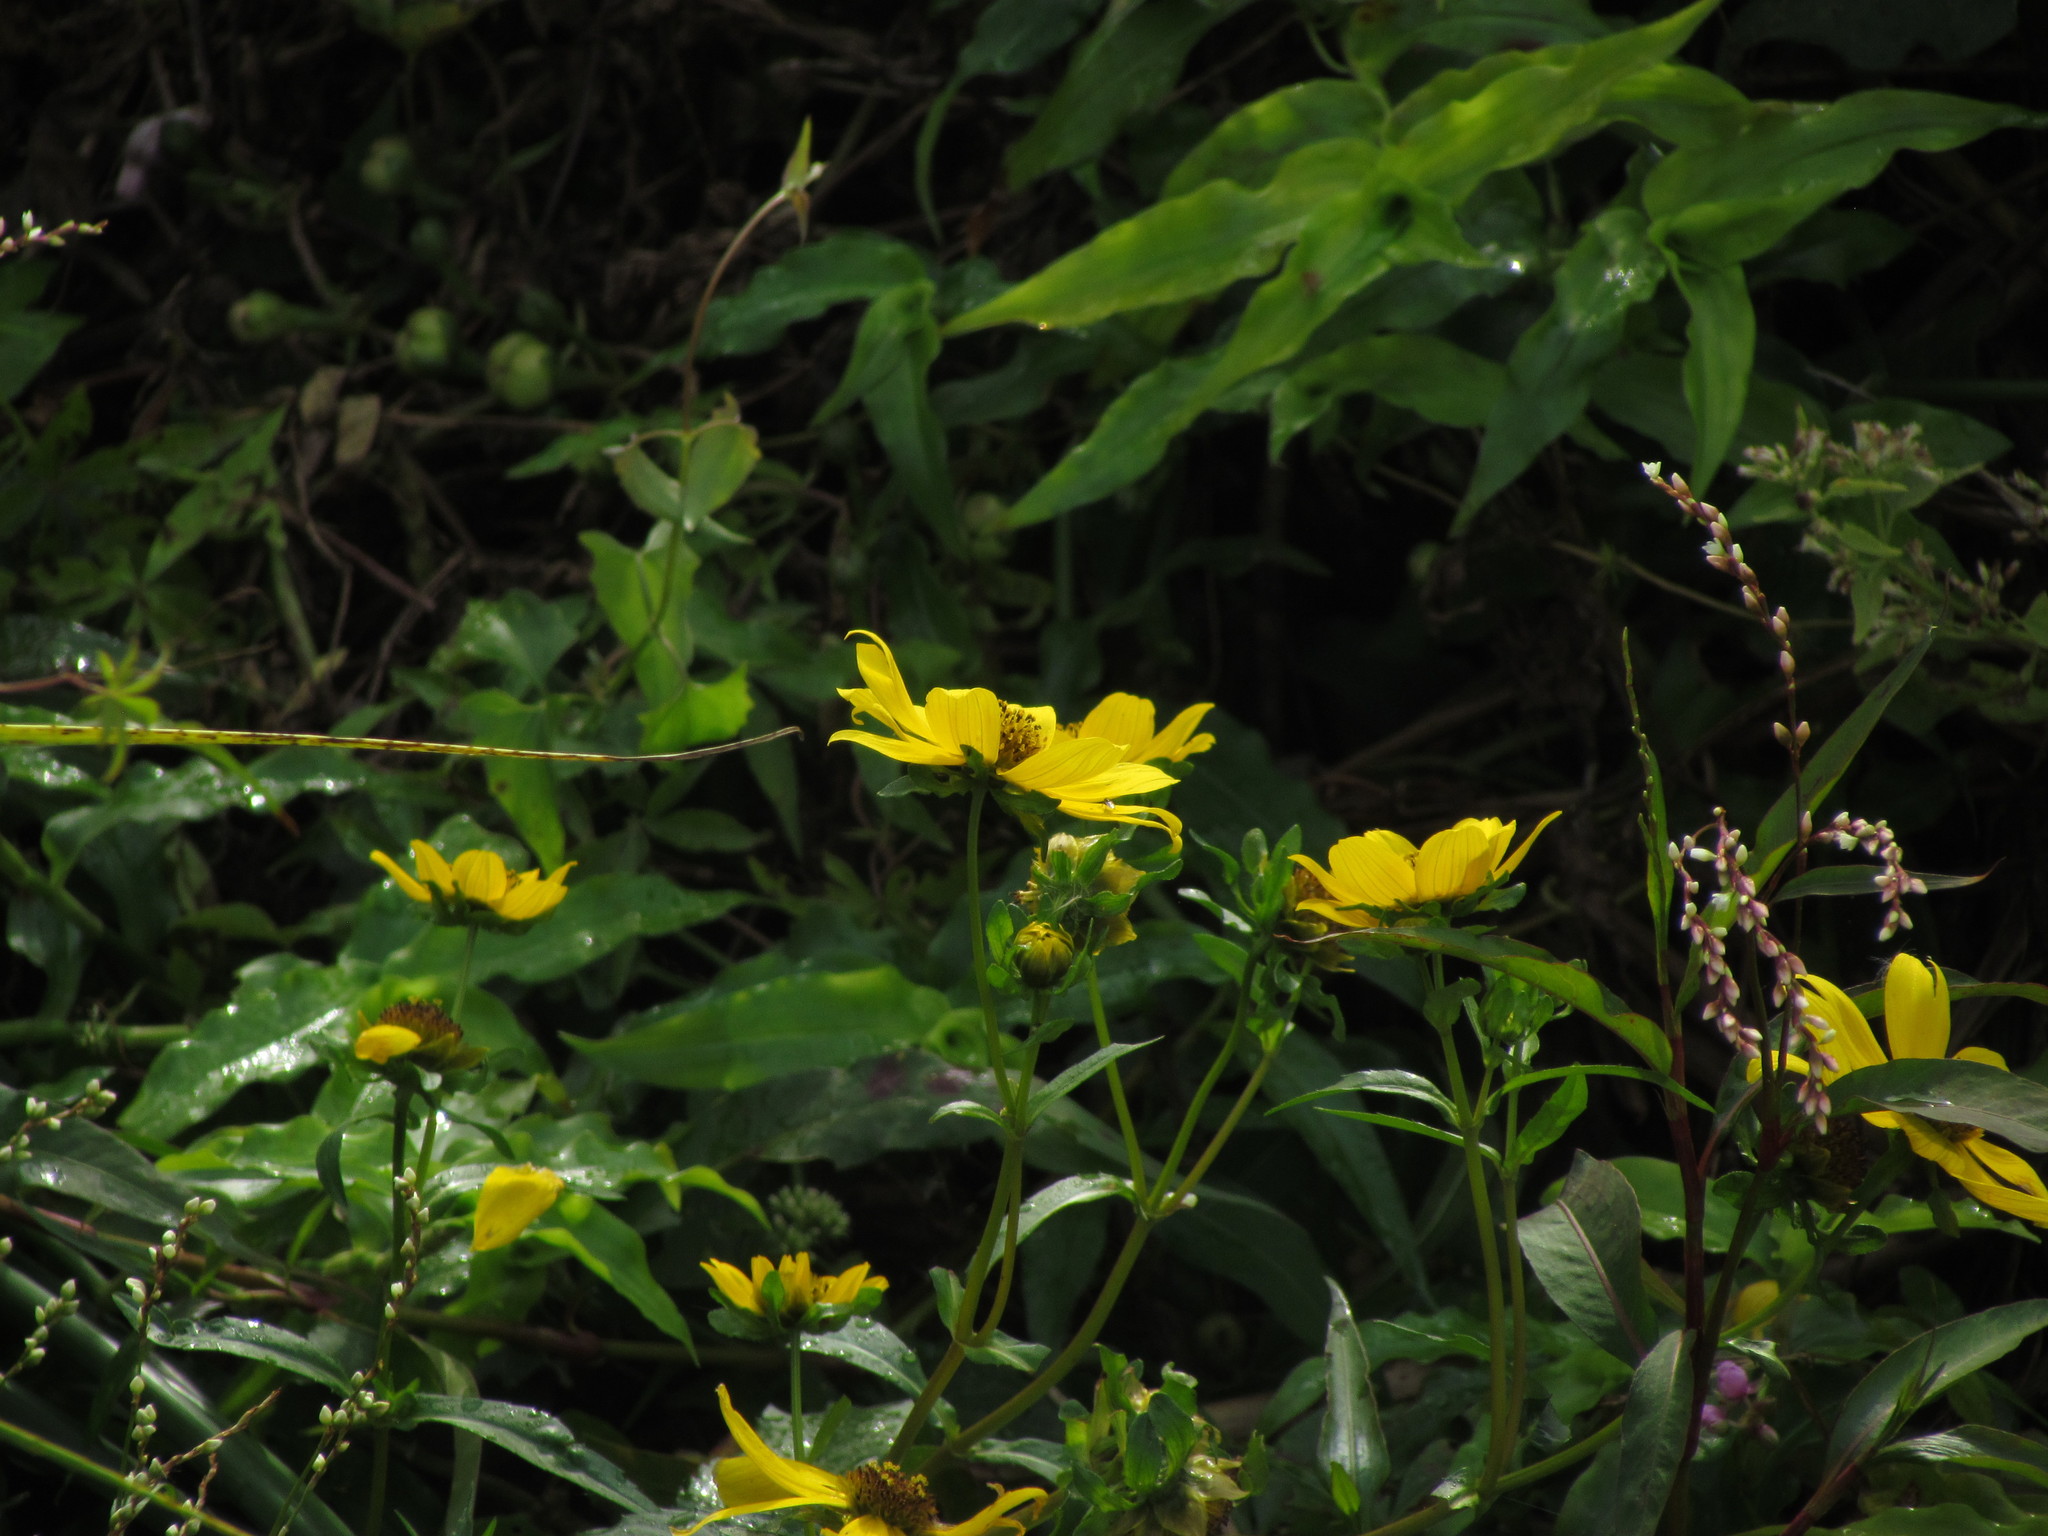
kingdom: Plantae
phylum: Tracheophyta
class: Magnoliopsida
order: Asterales
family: Asteraceae
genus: Bidens
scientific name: Bidens laevis
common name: Larger bur-marigold
